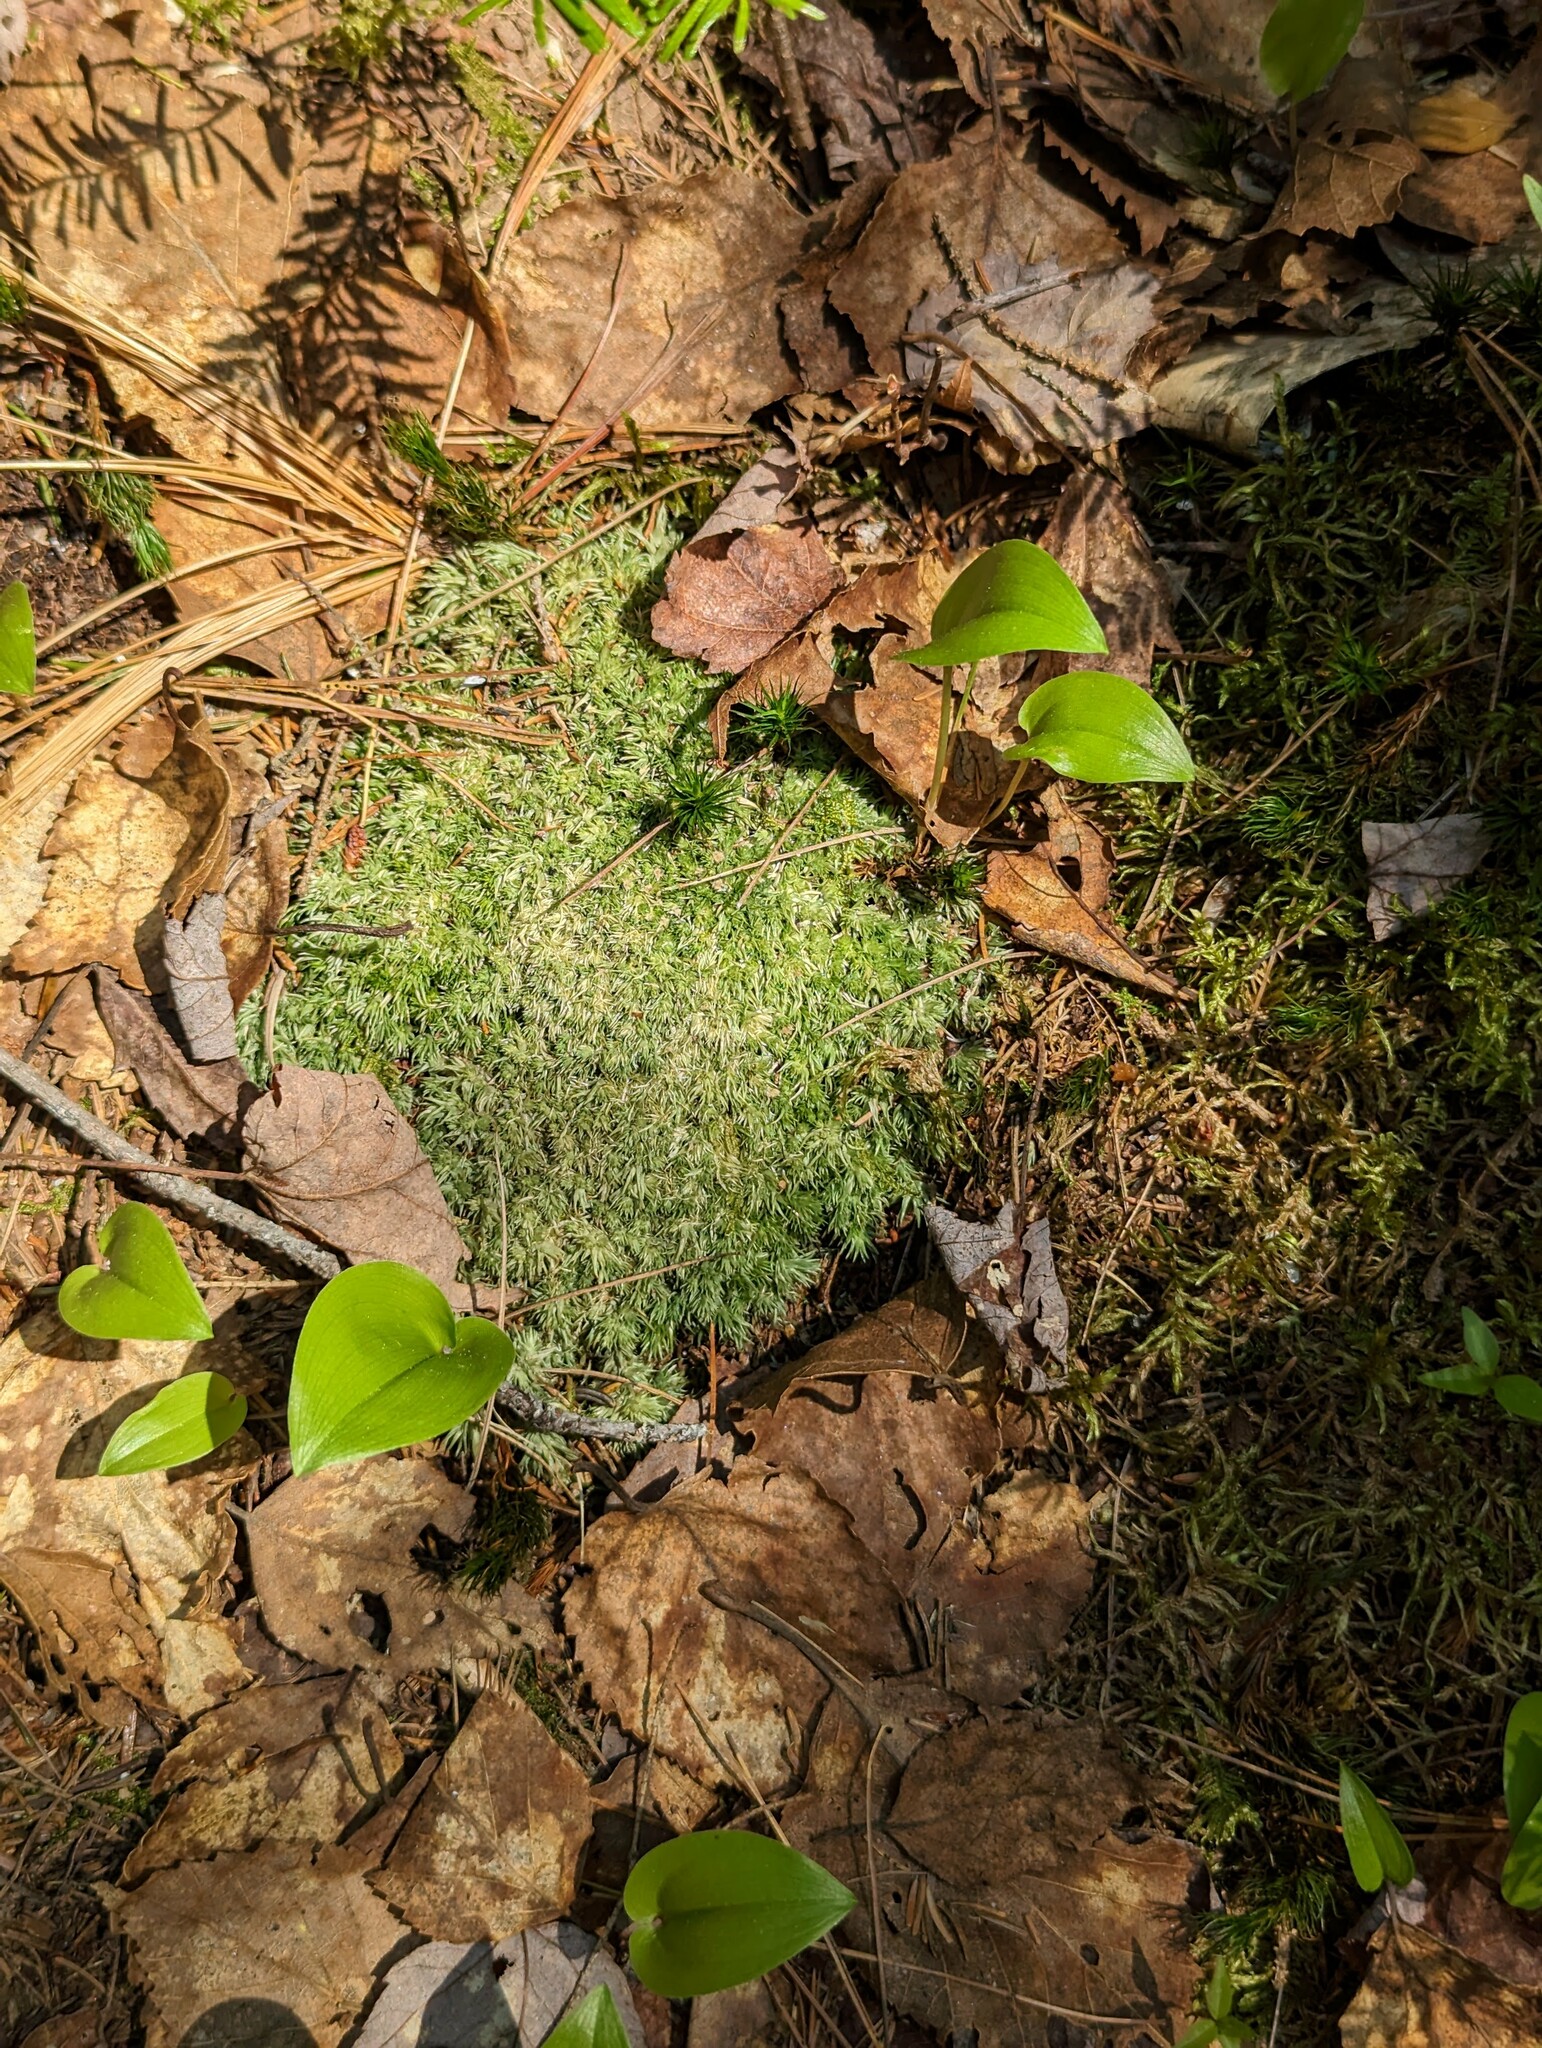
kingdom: Plantae
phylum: Tracheophyta
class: Liliopsida
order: Asparagales
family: Asparagaceae
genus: Maianthemum
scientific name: Maianthemum canadense
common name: False lily-of-the-valley
